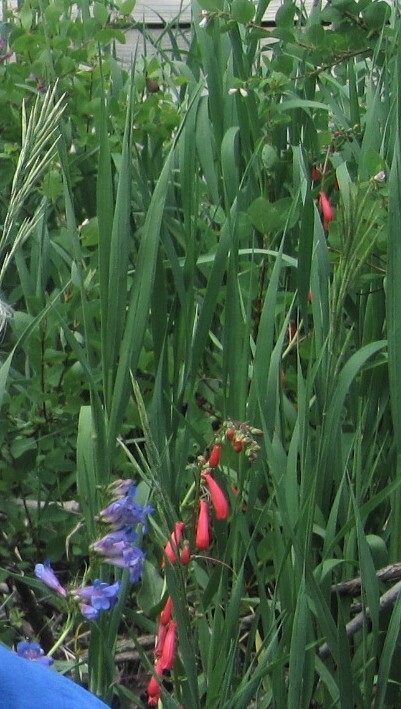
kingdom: Plantae
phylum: Tracheophyta
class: Magnoliopsida
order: Lamiales
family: Plantaginaceae
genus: Penstemon
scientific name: Penstemon eatonii
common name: Eaton's penstemon
